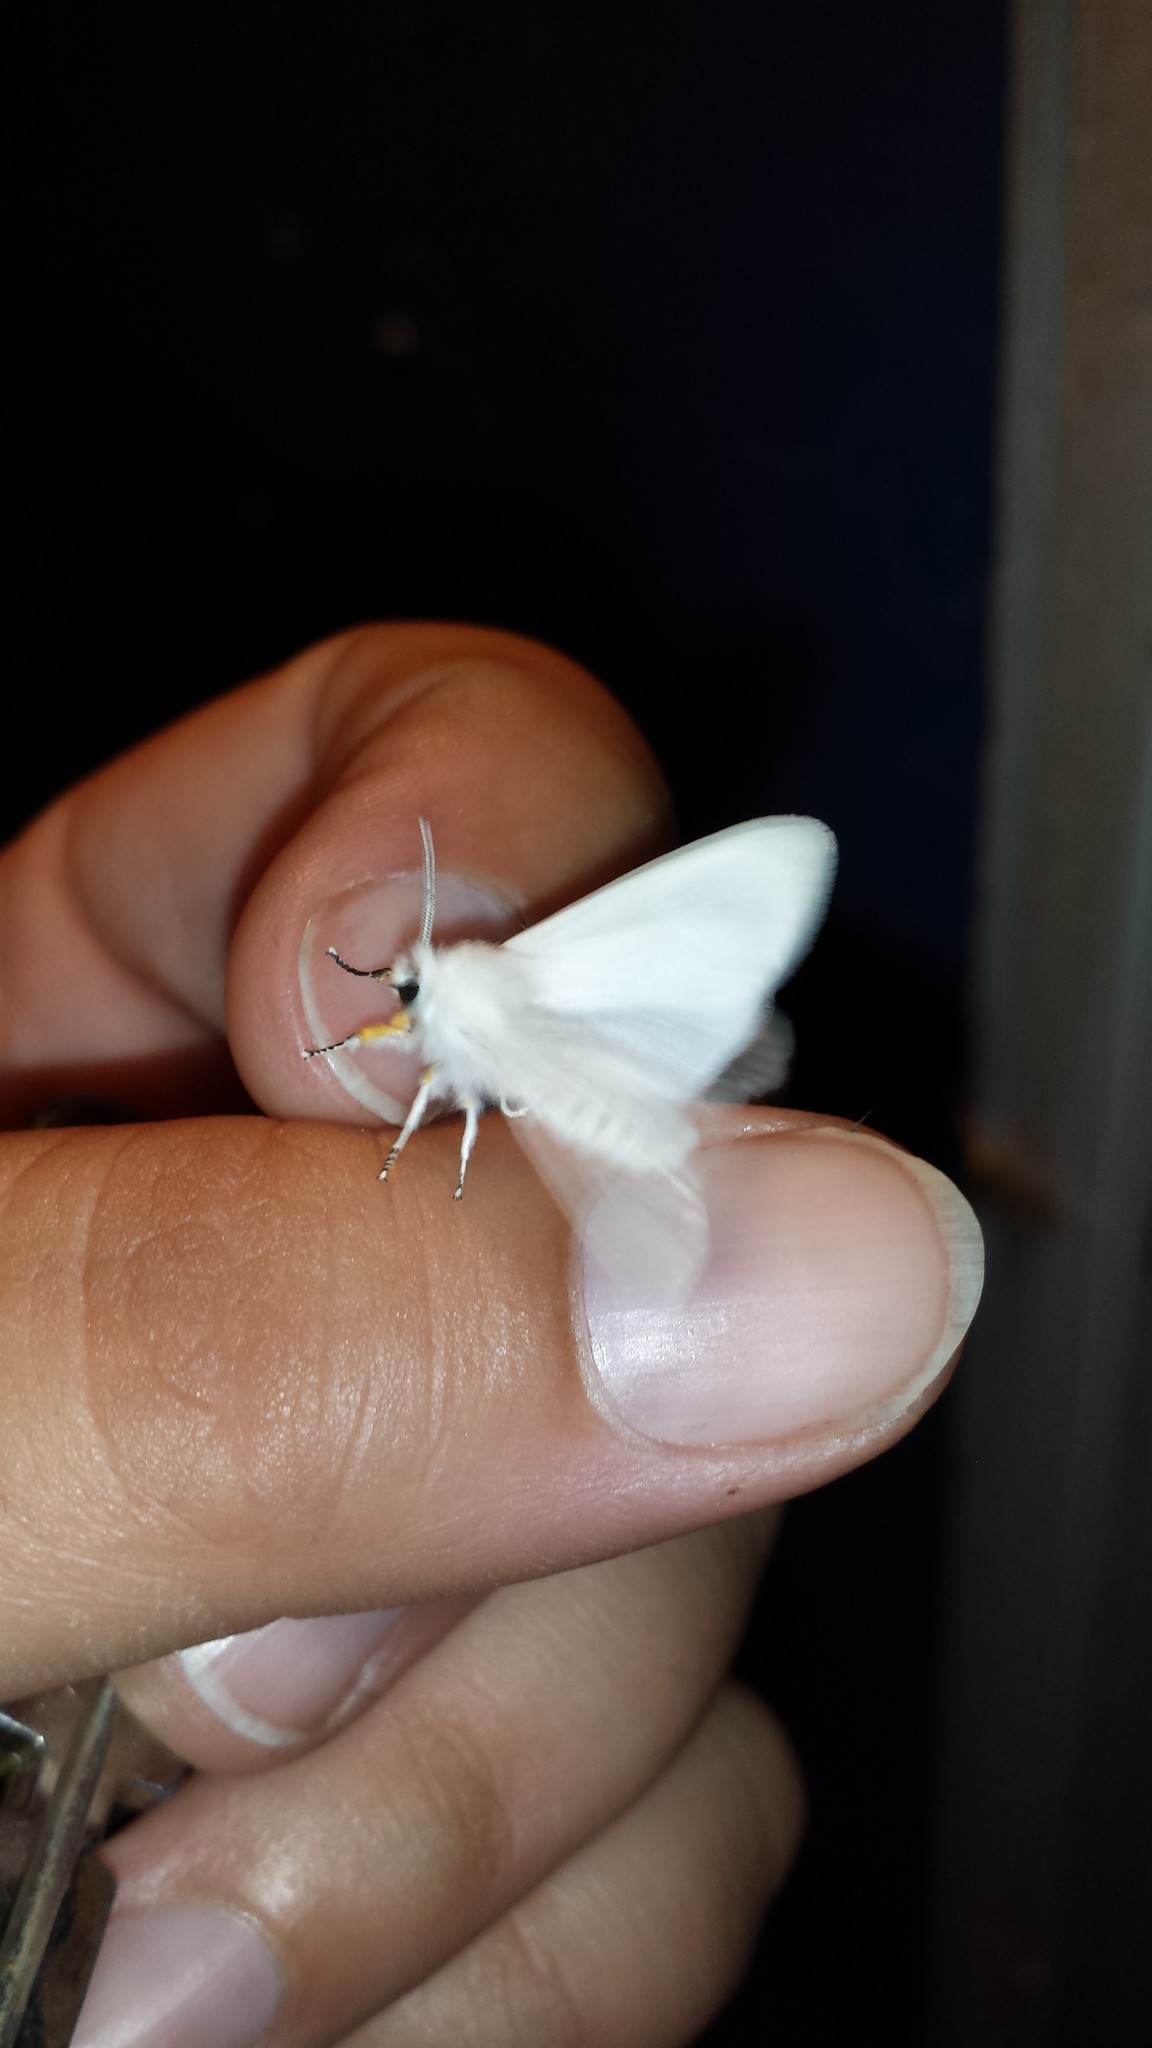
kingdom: Animalia
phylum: Arthropoda
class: Insecta
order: Lepidoptera
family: Erebidae
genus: Hyphantria
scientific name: Hyphantria cunea
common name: American white moth
